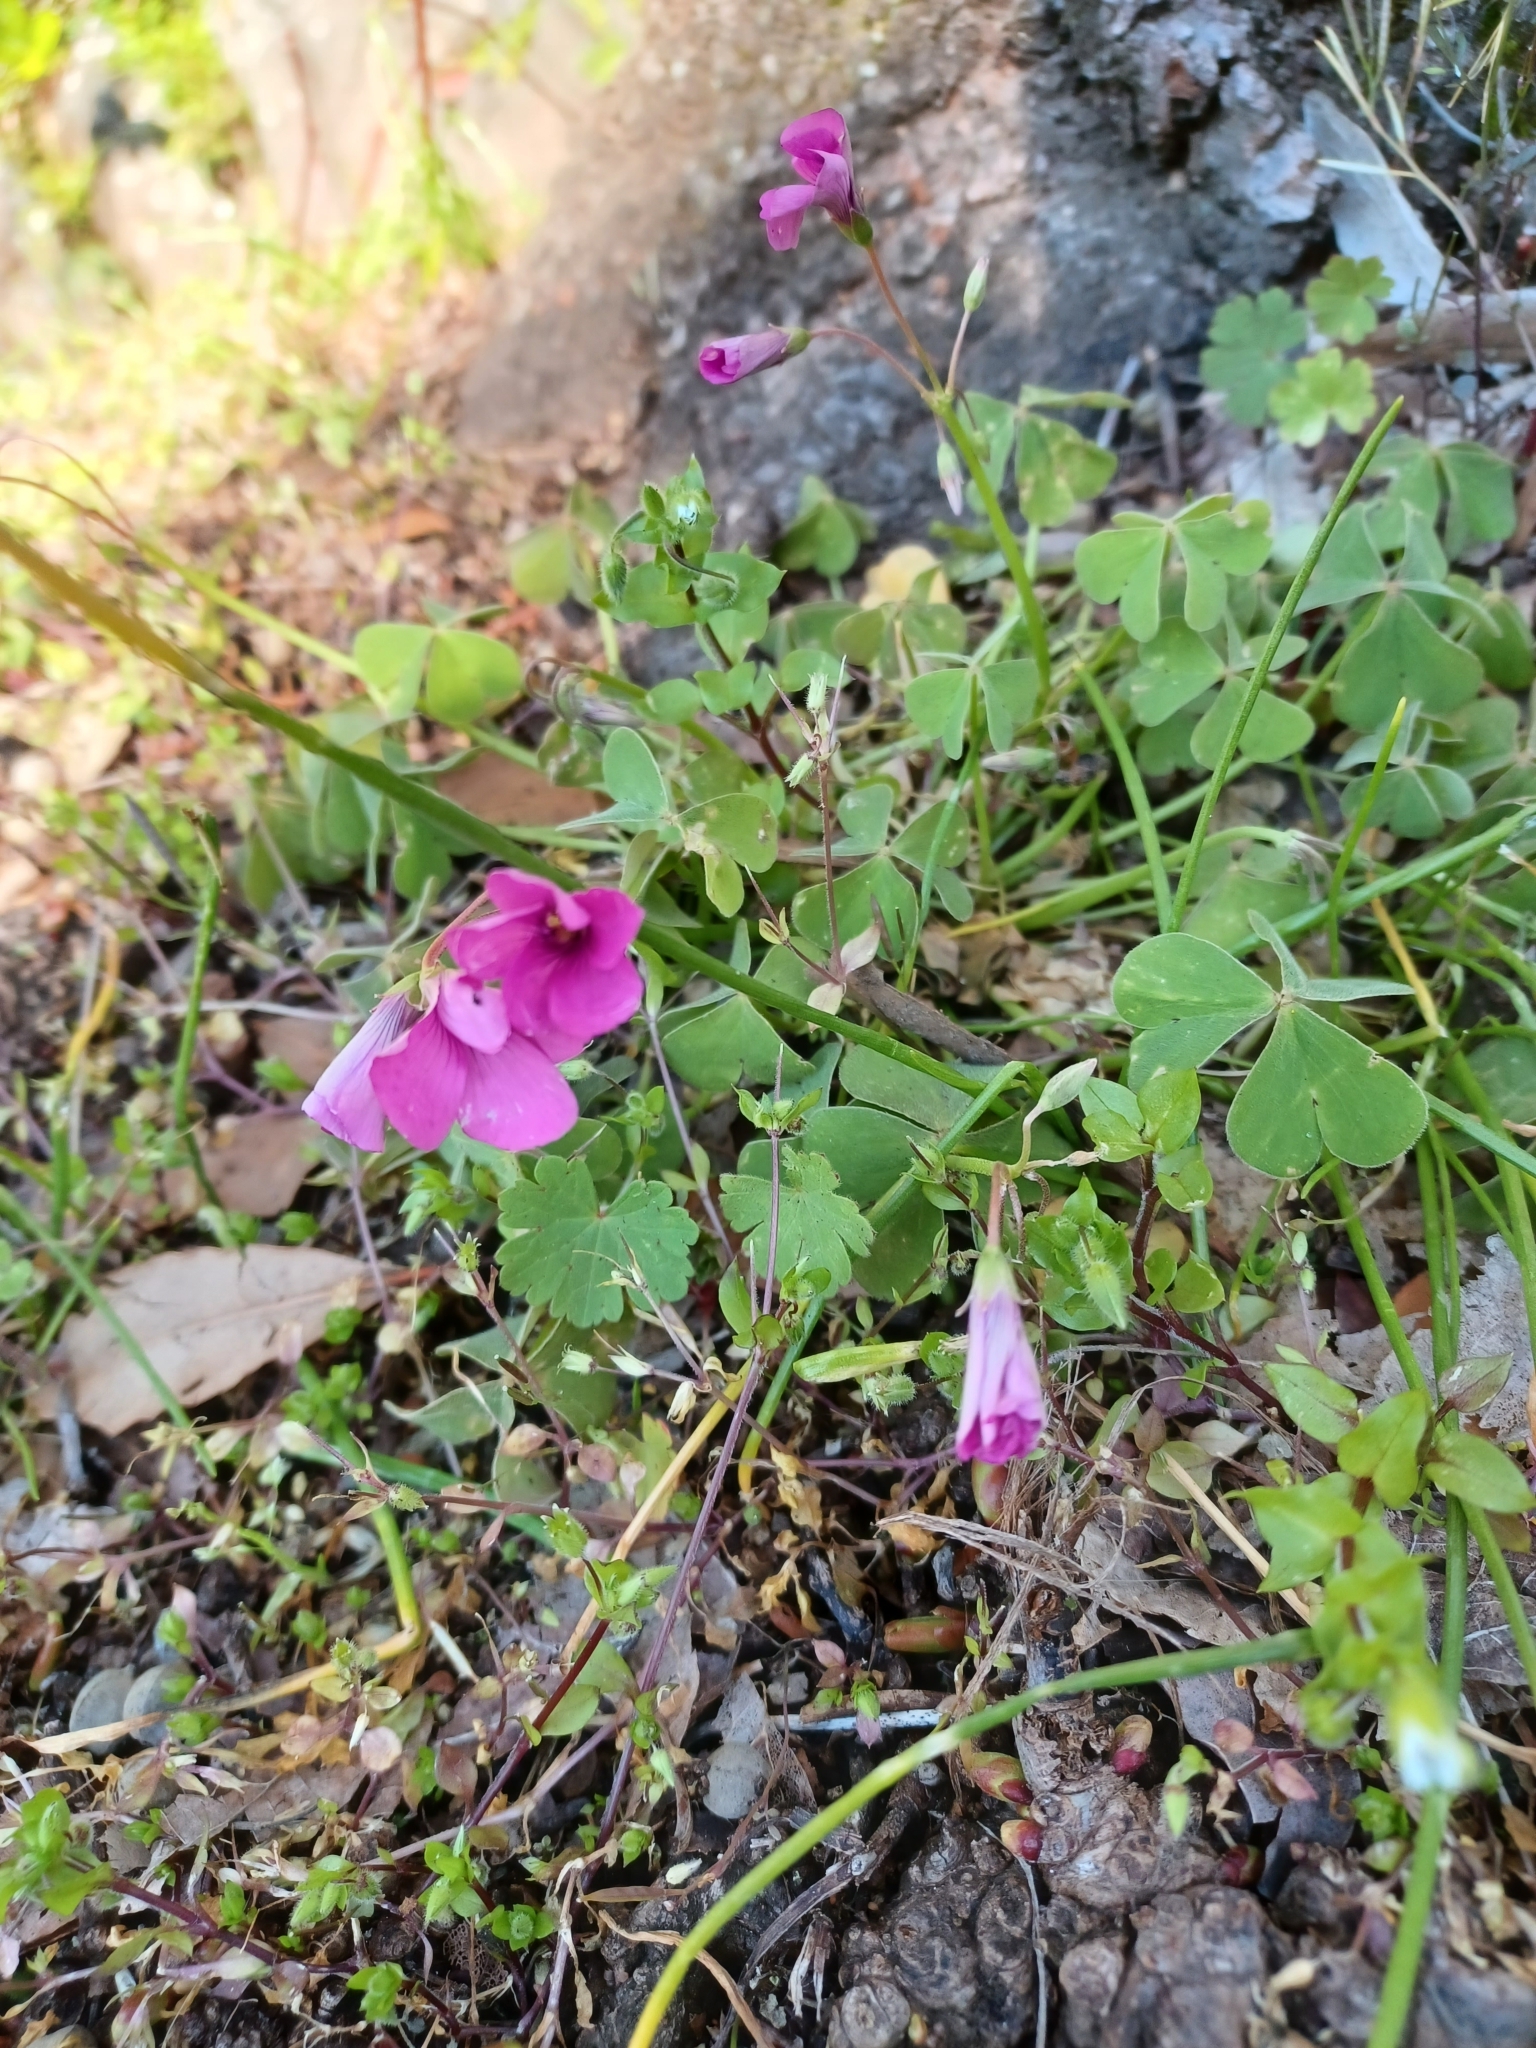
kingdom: Plantae
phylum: Tracheophyta
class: Magnoliopsida
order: Oxalidales
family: Oxalidaceae
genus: Oxalis
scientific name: Oxalis articulata
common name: Pink-sorrel
